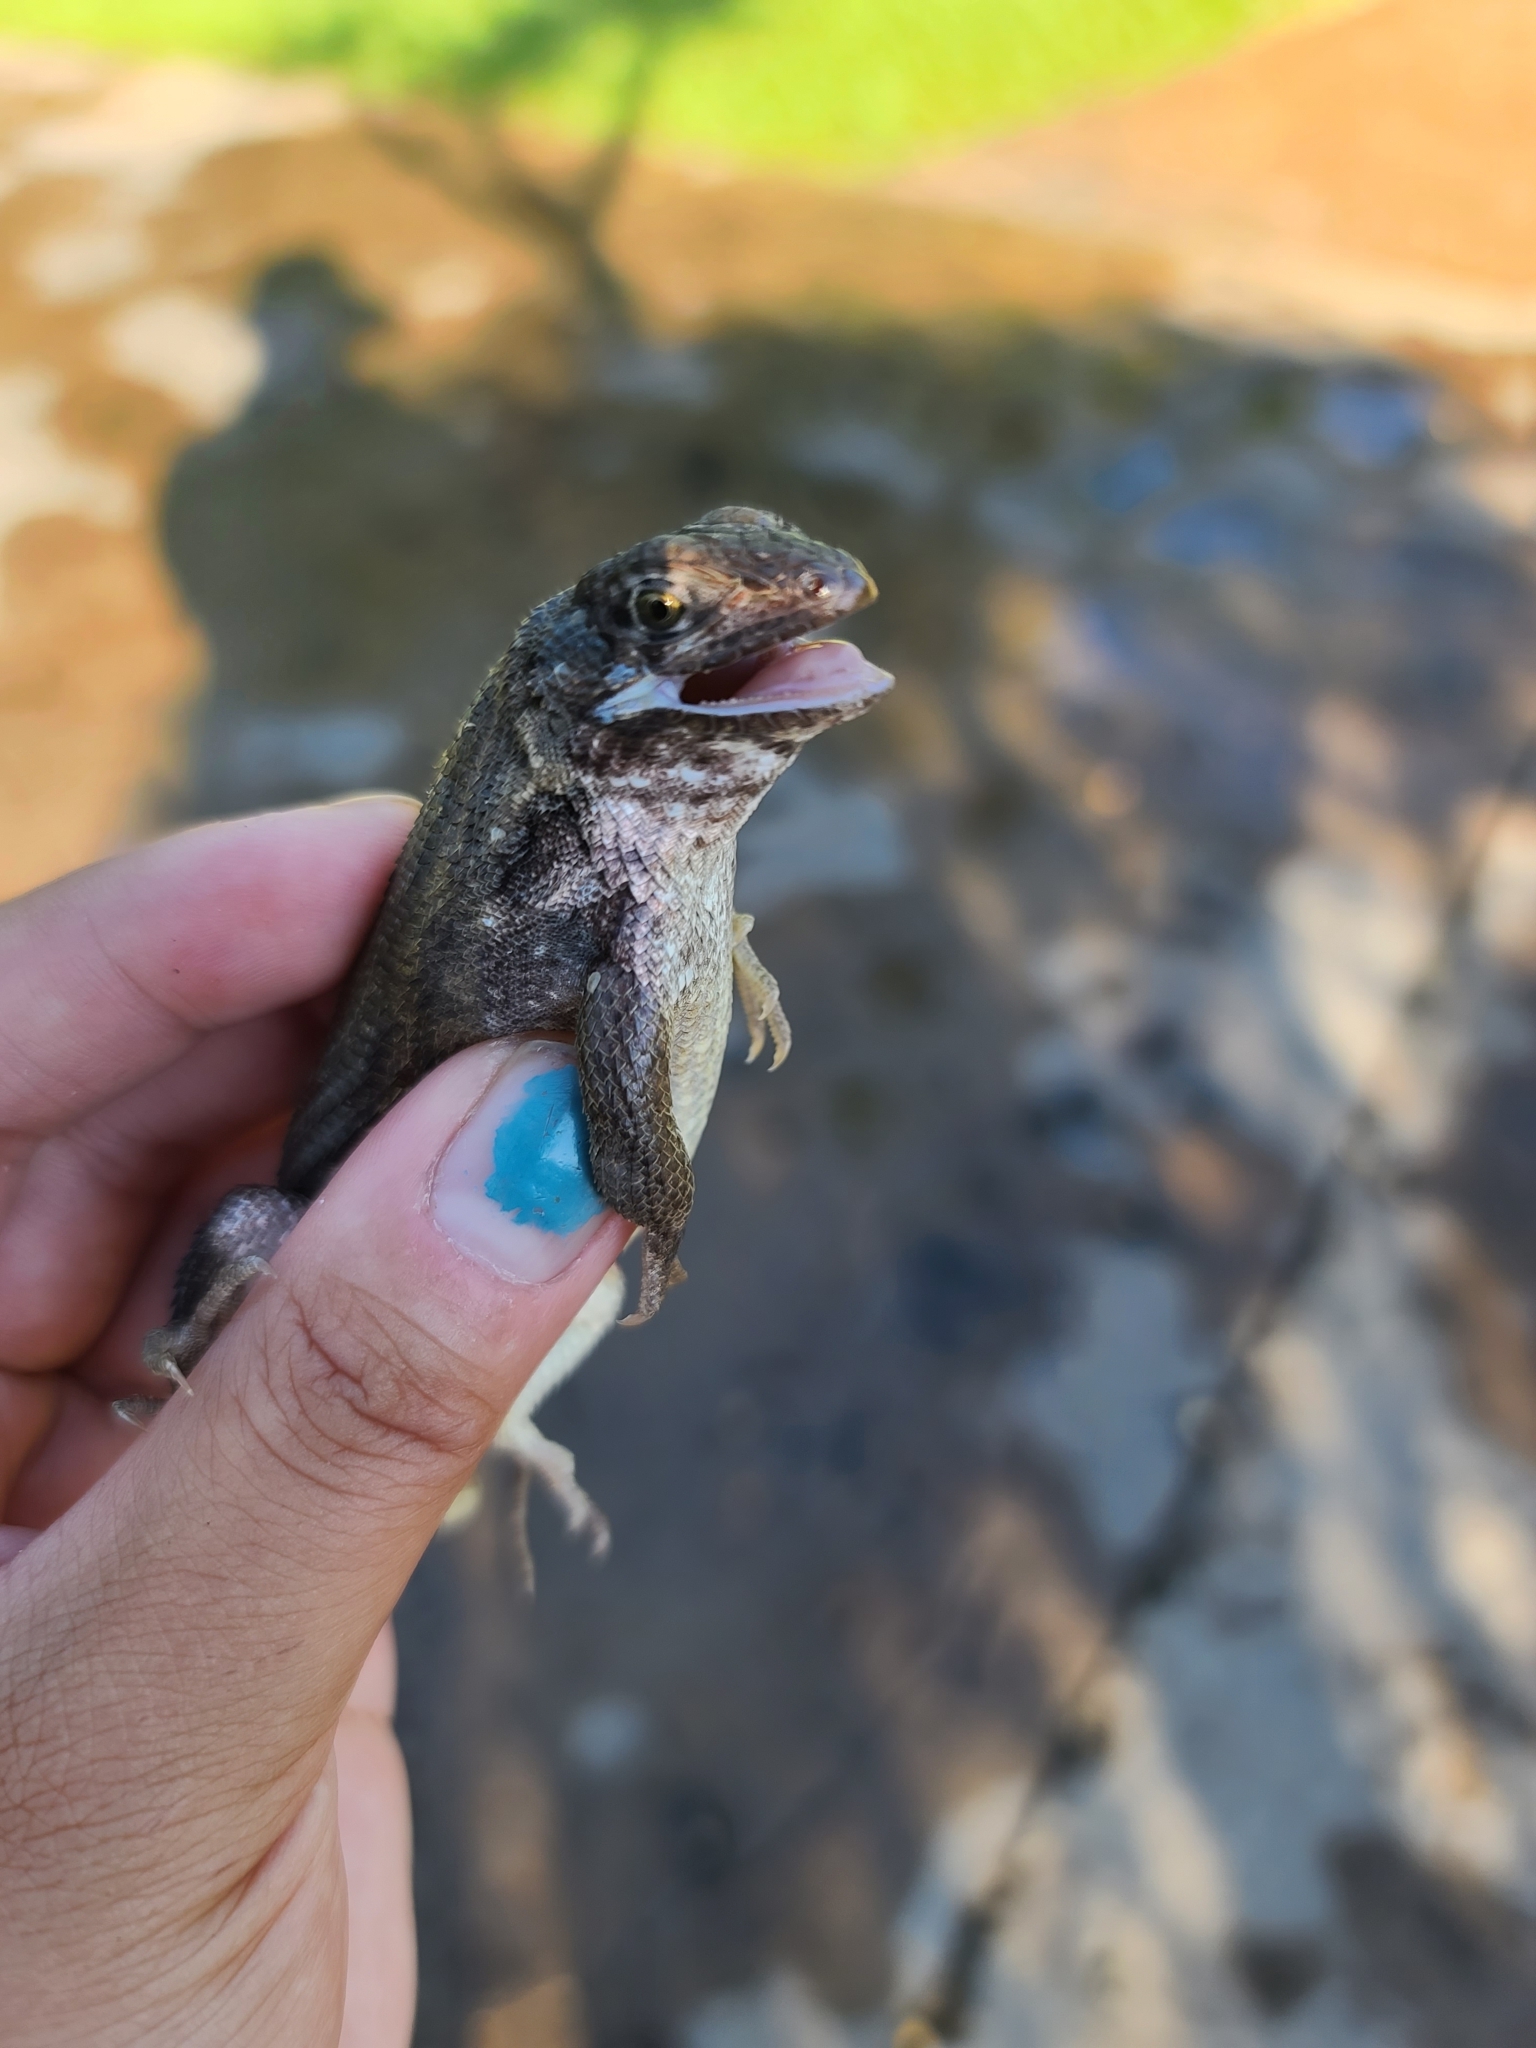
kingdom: Animalia
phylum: Chordata
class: Squamata
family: Leiocephalidae
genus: Leiocephalus
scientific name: Leiocephalus carinatus
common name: Northern curly-tailed lizard
